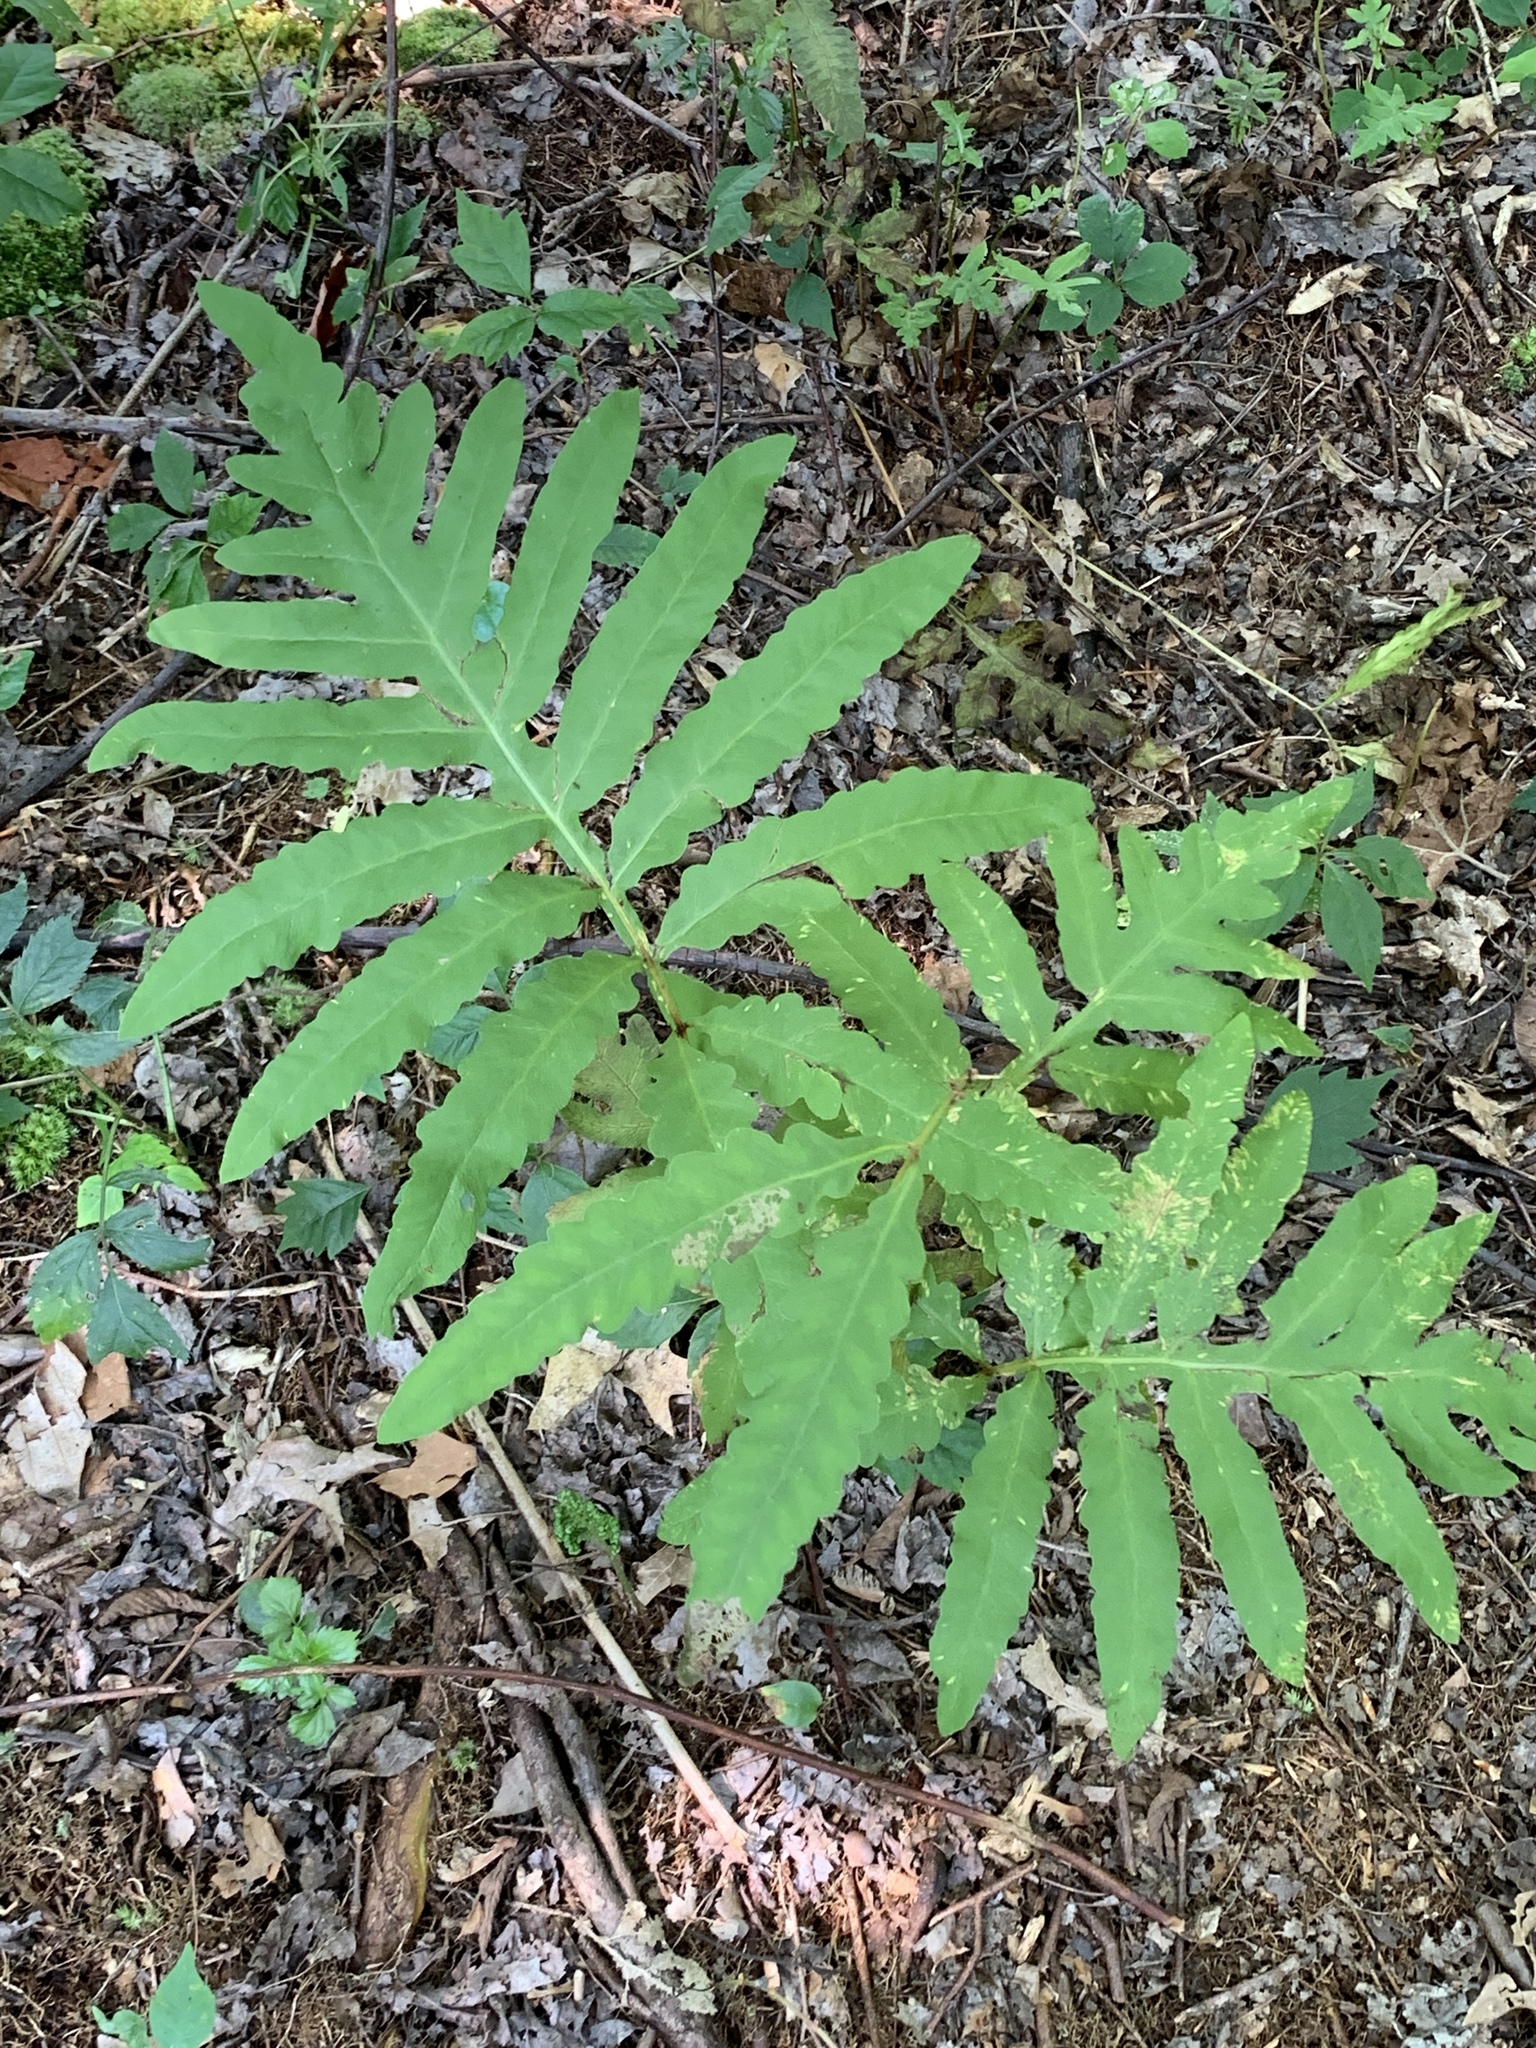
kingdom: Plantae
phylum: Tracheophyta
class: Polypodiopsida
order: Polypodiales
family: Onocleaceae
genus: Onoclea
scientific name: Onoclea sensibilis
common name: Sensitive fern
